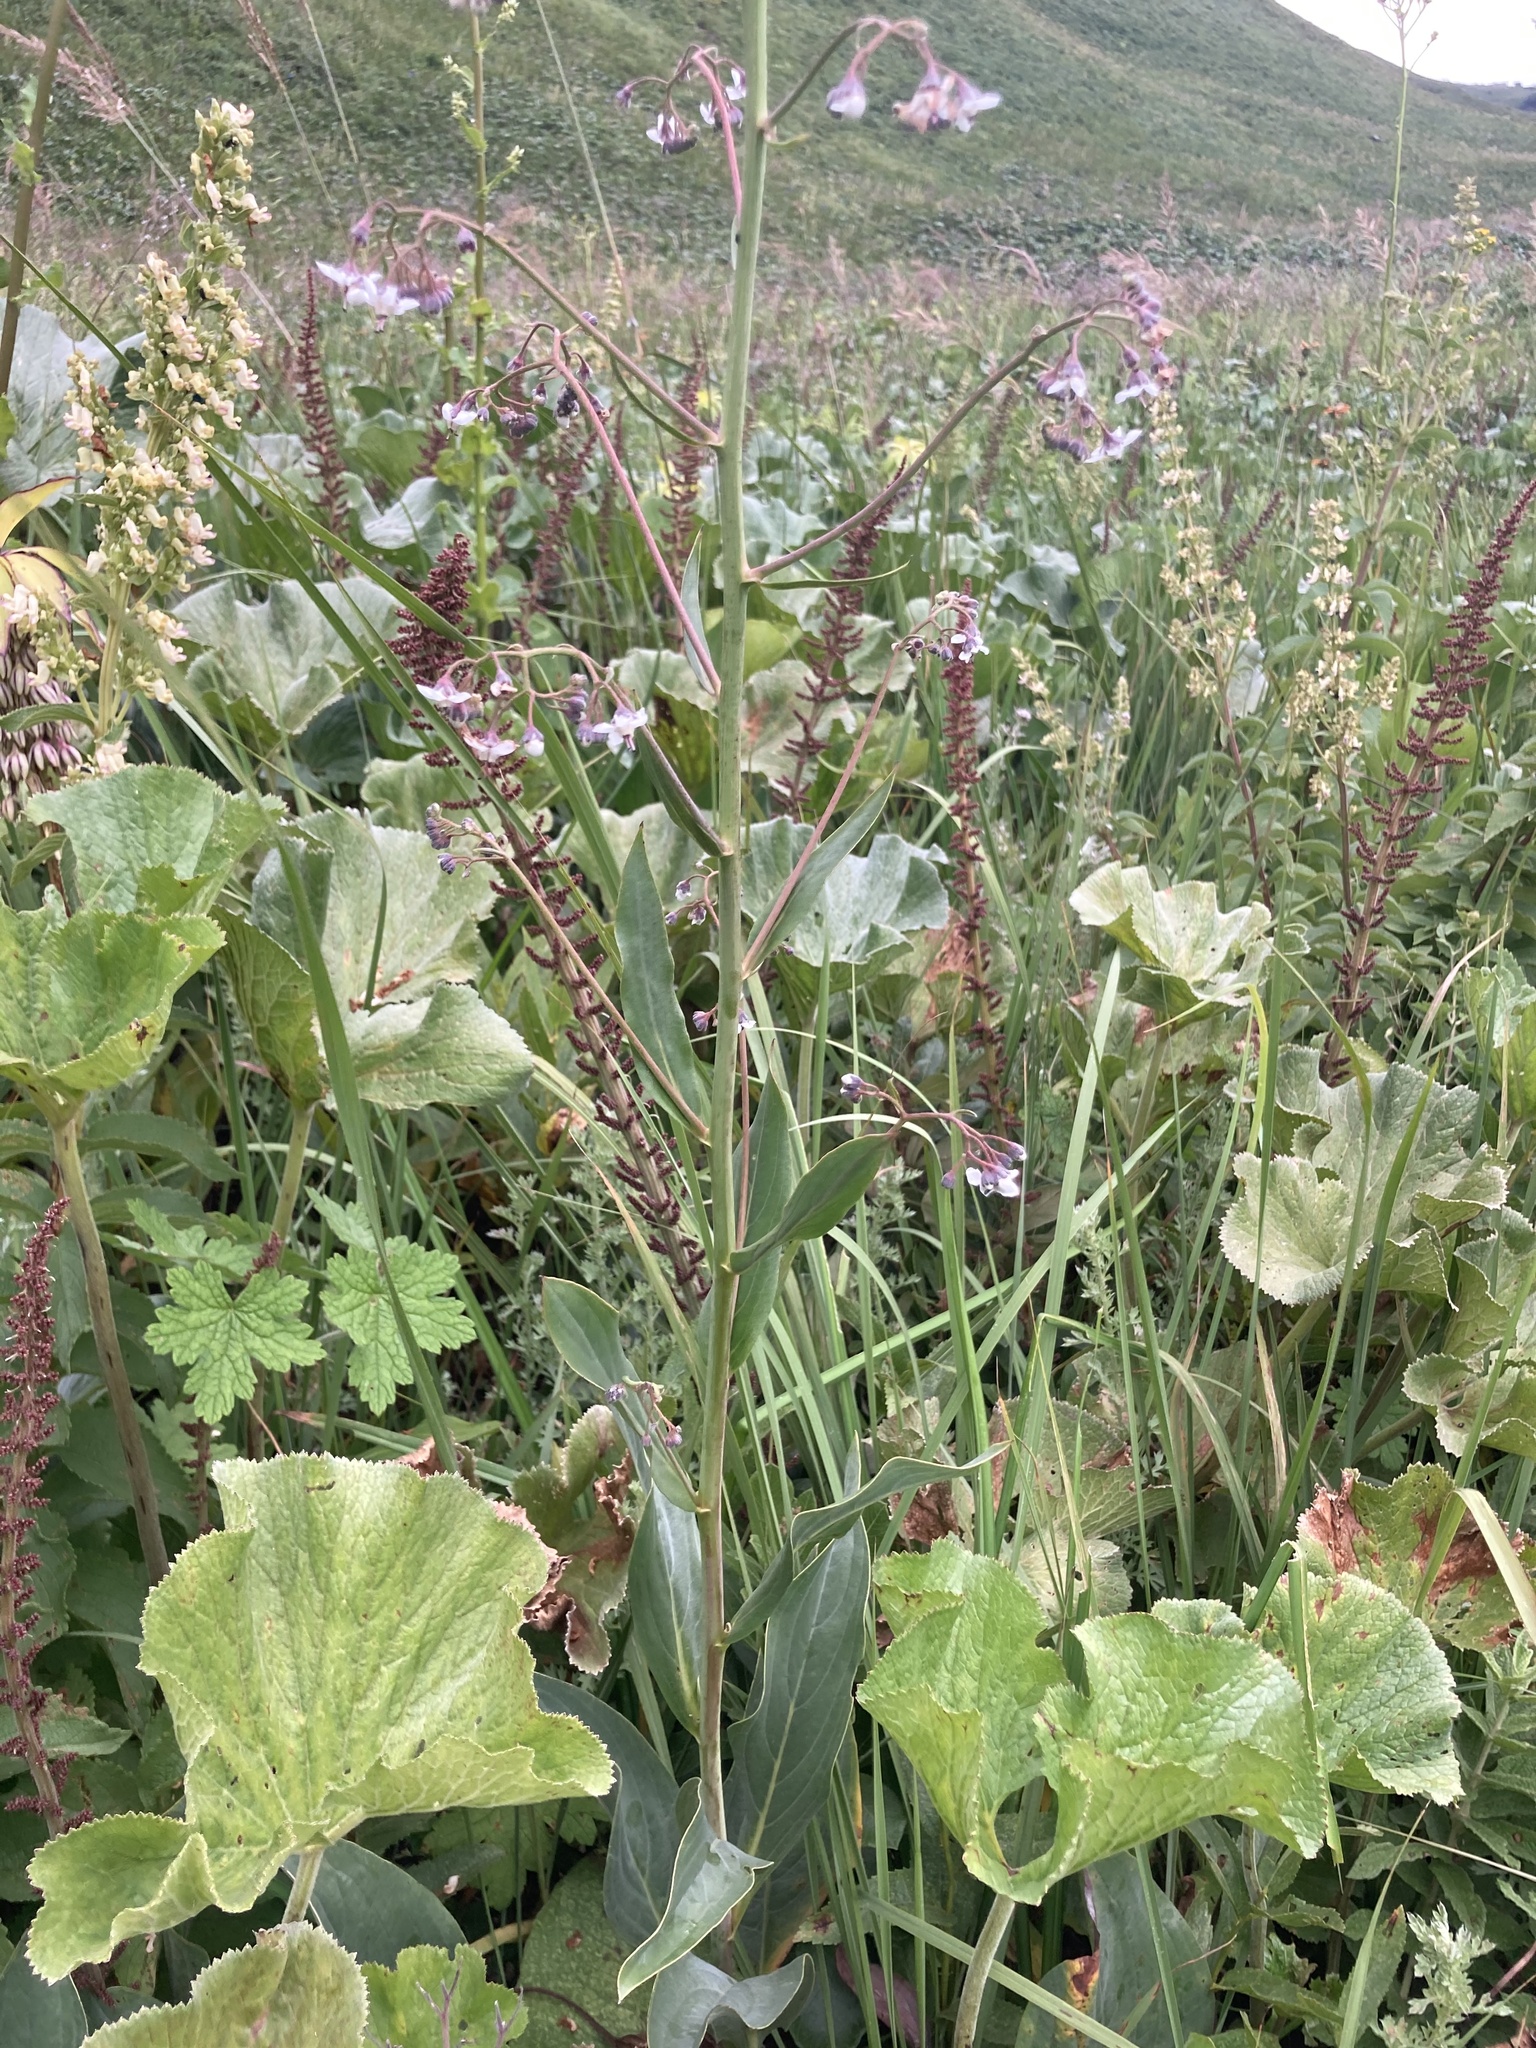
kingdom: Plantae
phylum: Tracheophyta
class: Magnoliopsida
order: Boraginales
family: Boraginaceae
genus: Afrotysonia
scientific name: Afrotysonia glochidiata
